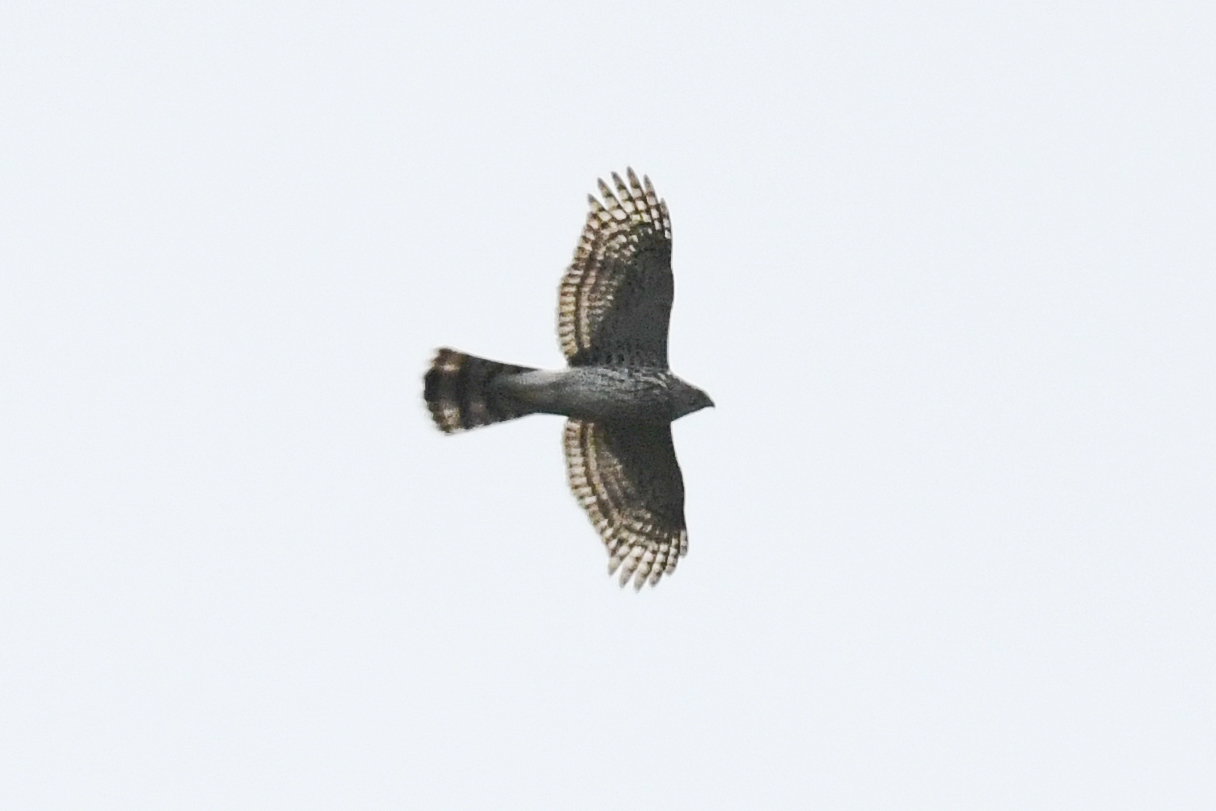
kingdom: Animalia
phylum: Chordata
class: Aves
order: Accipitriformes
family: Accipitridae
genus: Accipiter
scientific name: Accipiter cooperii
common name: Cooper's hawk
